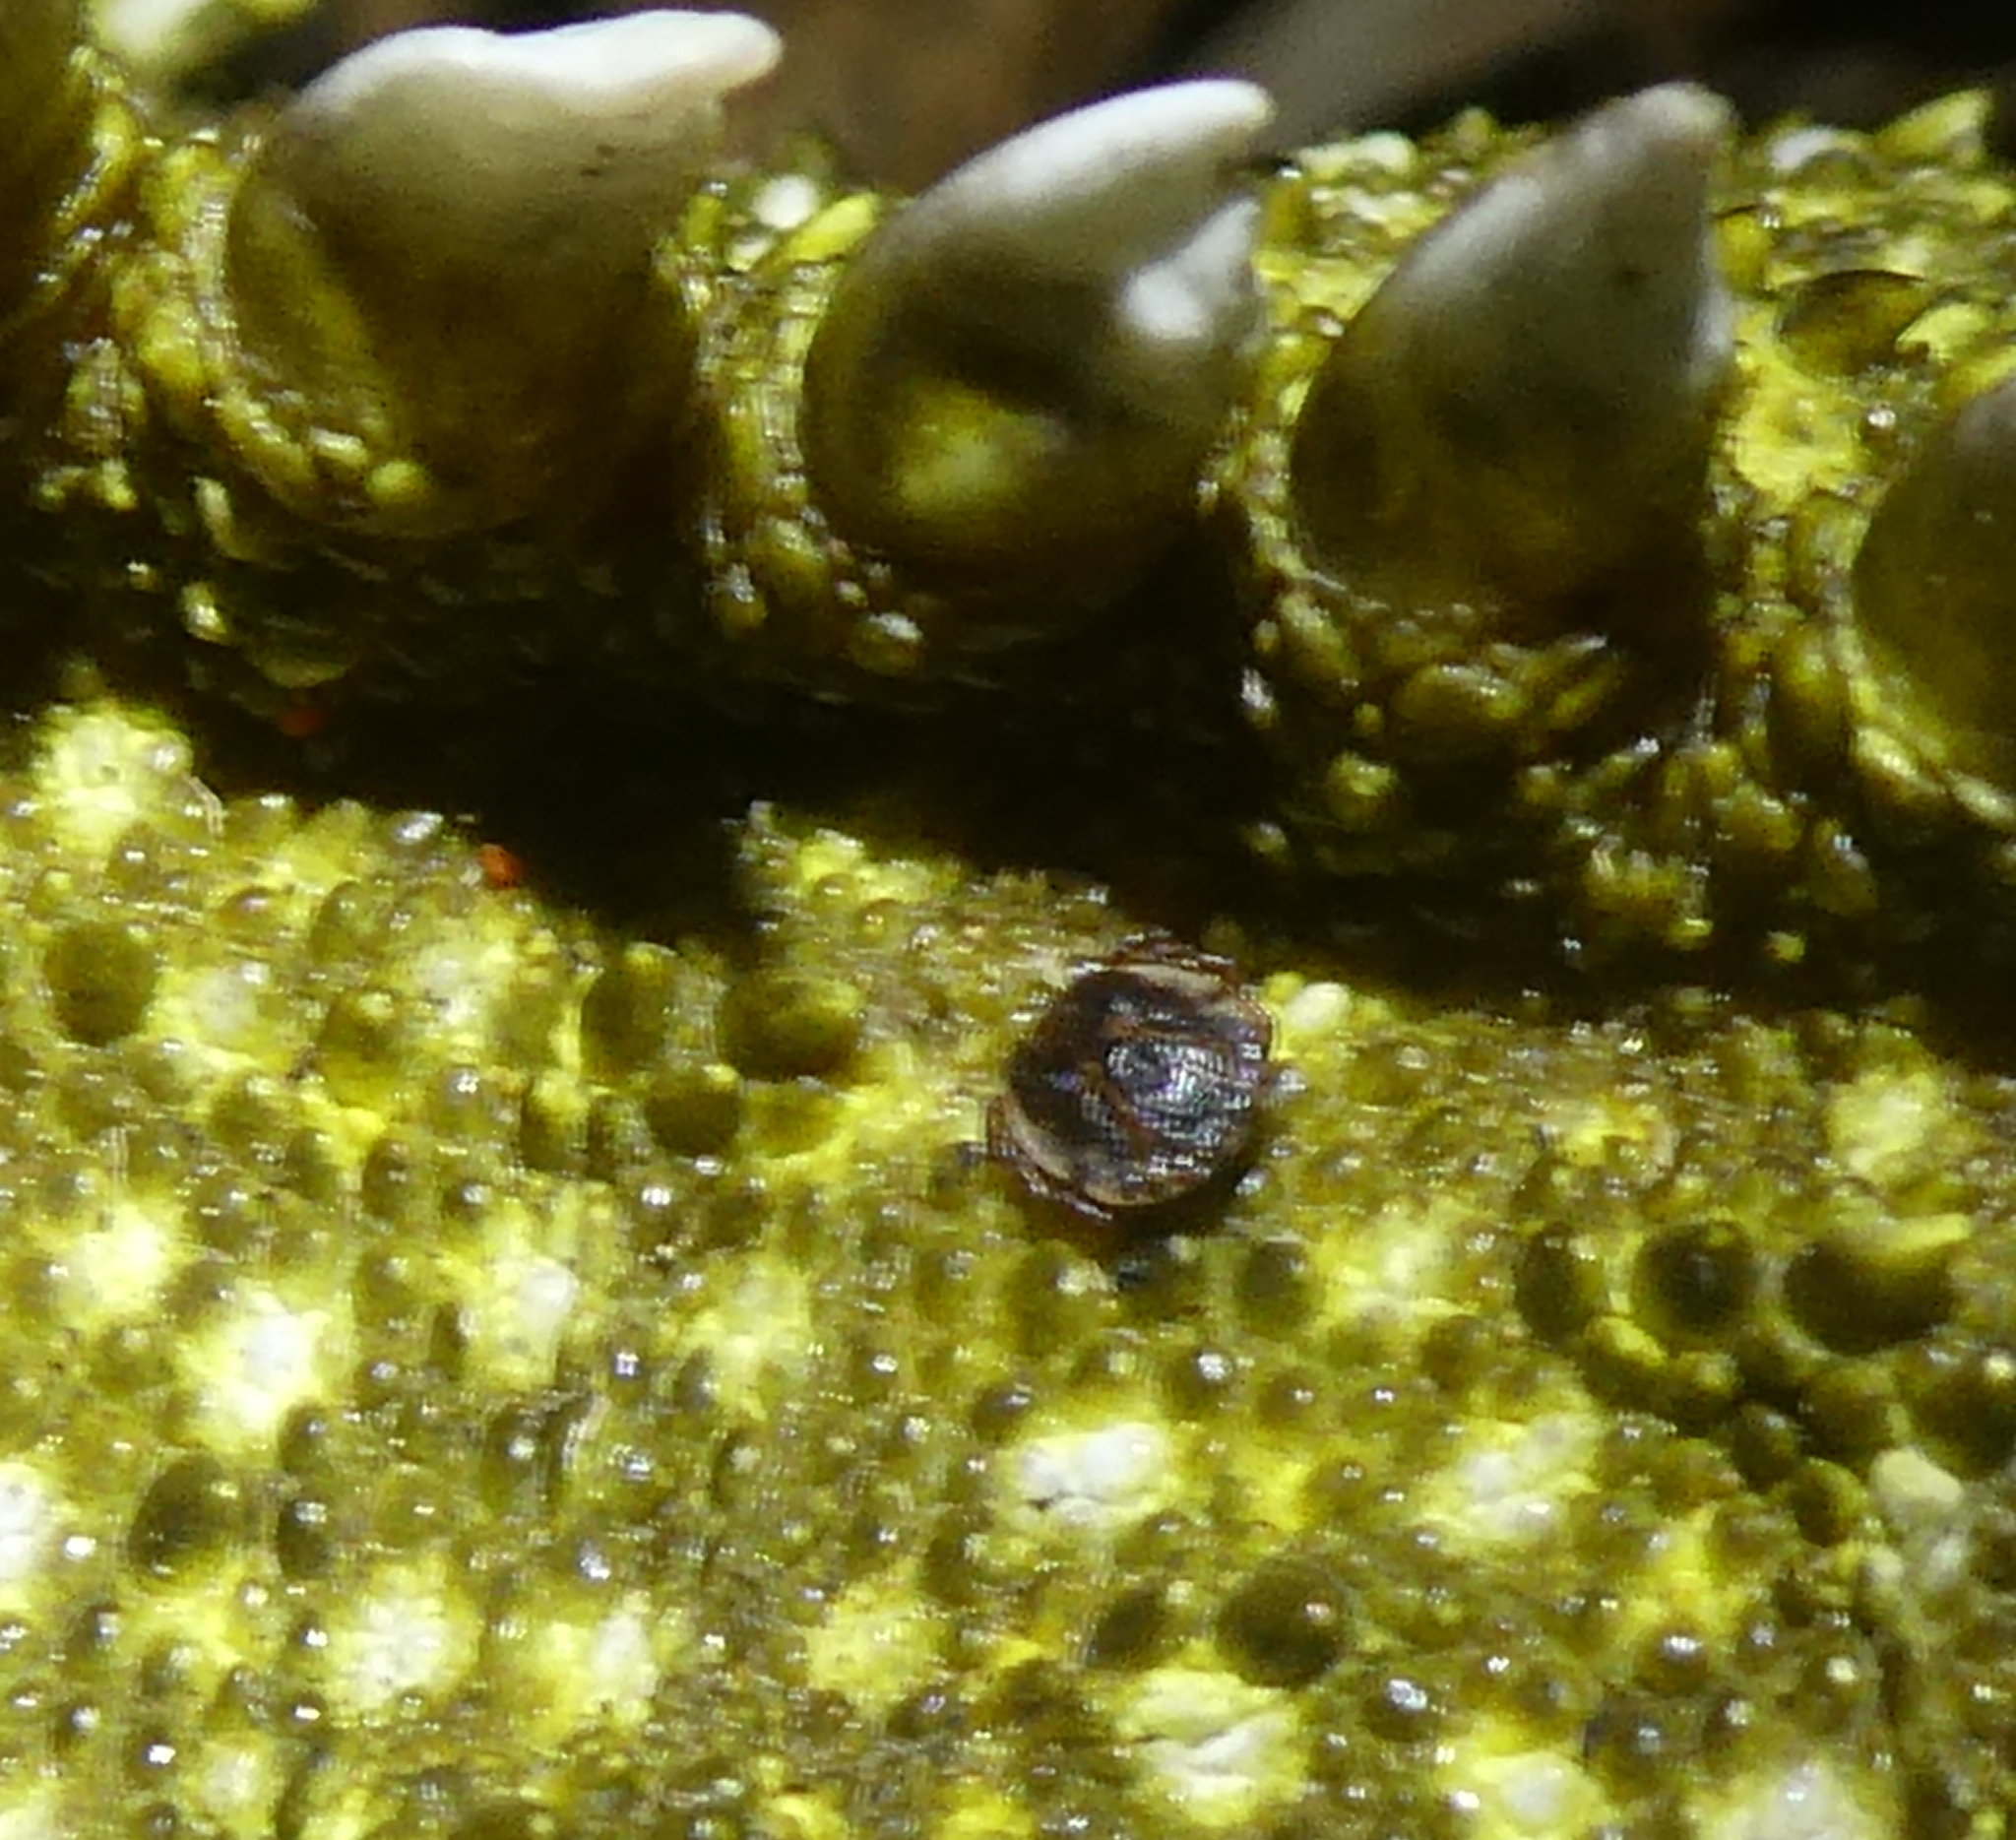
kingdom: Animalia
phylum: Arthropoda
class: Arachnida
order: Ixodida
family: Ixodidae
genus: Archaeocroton
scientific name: Archaeocroton sphenodonti
